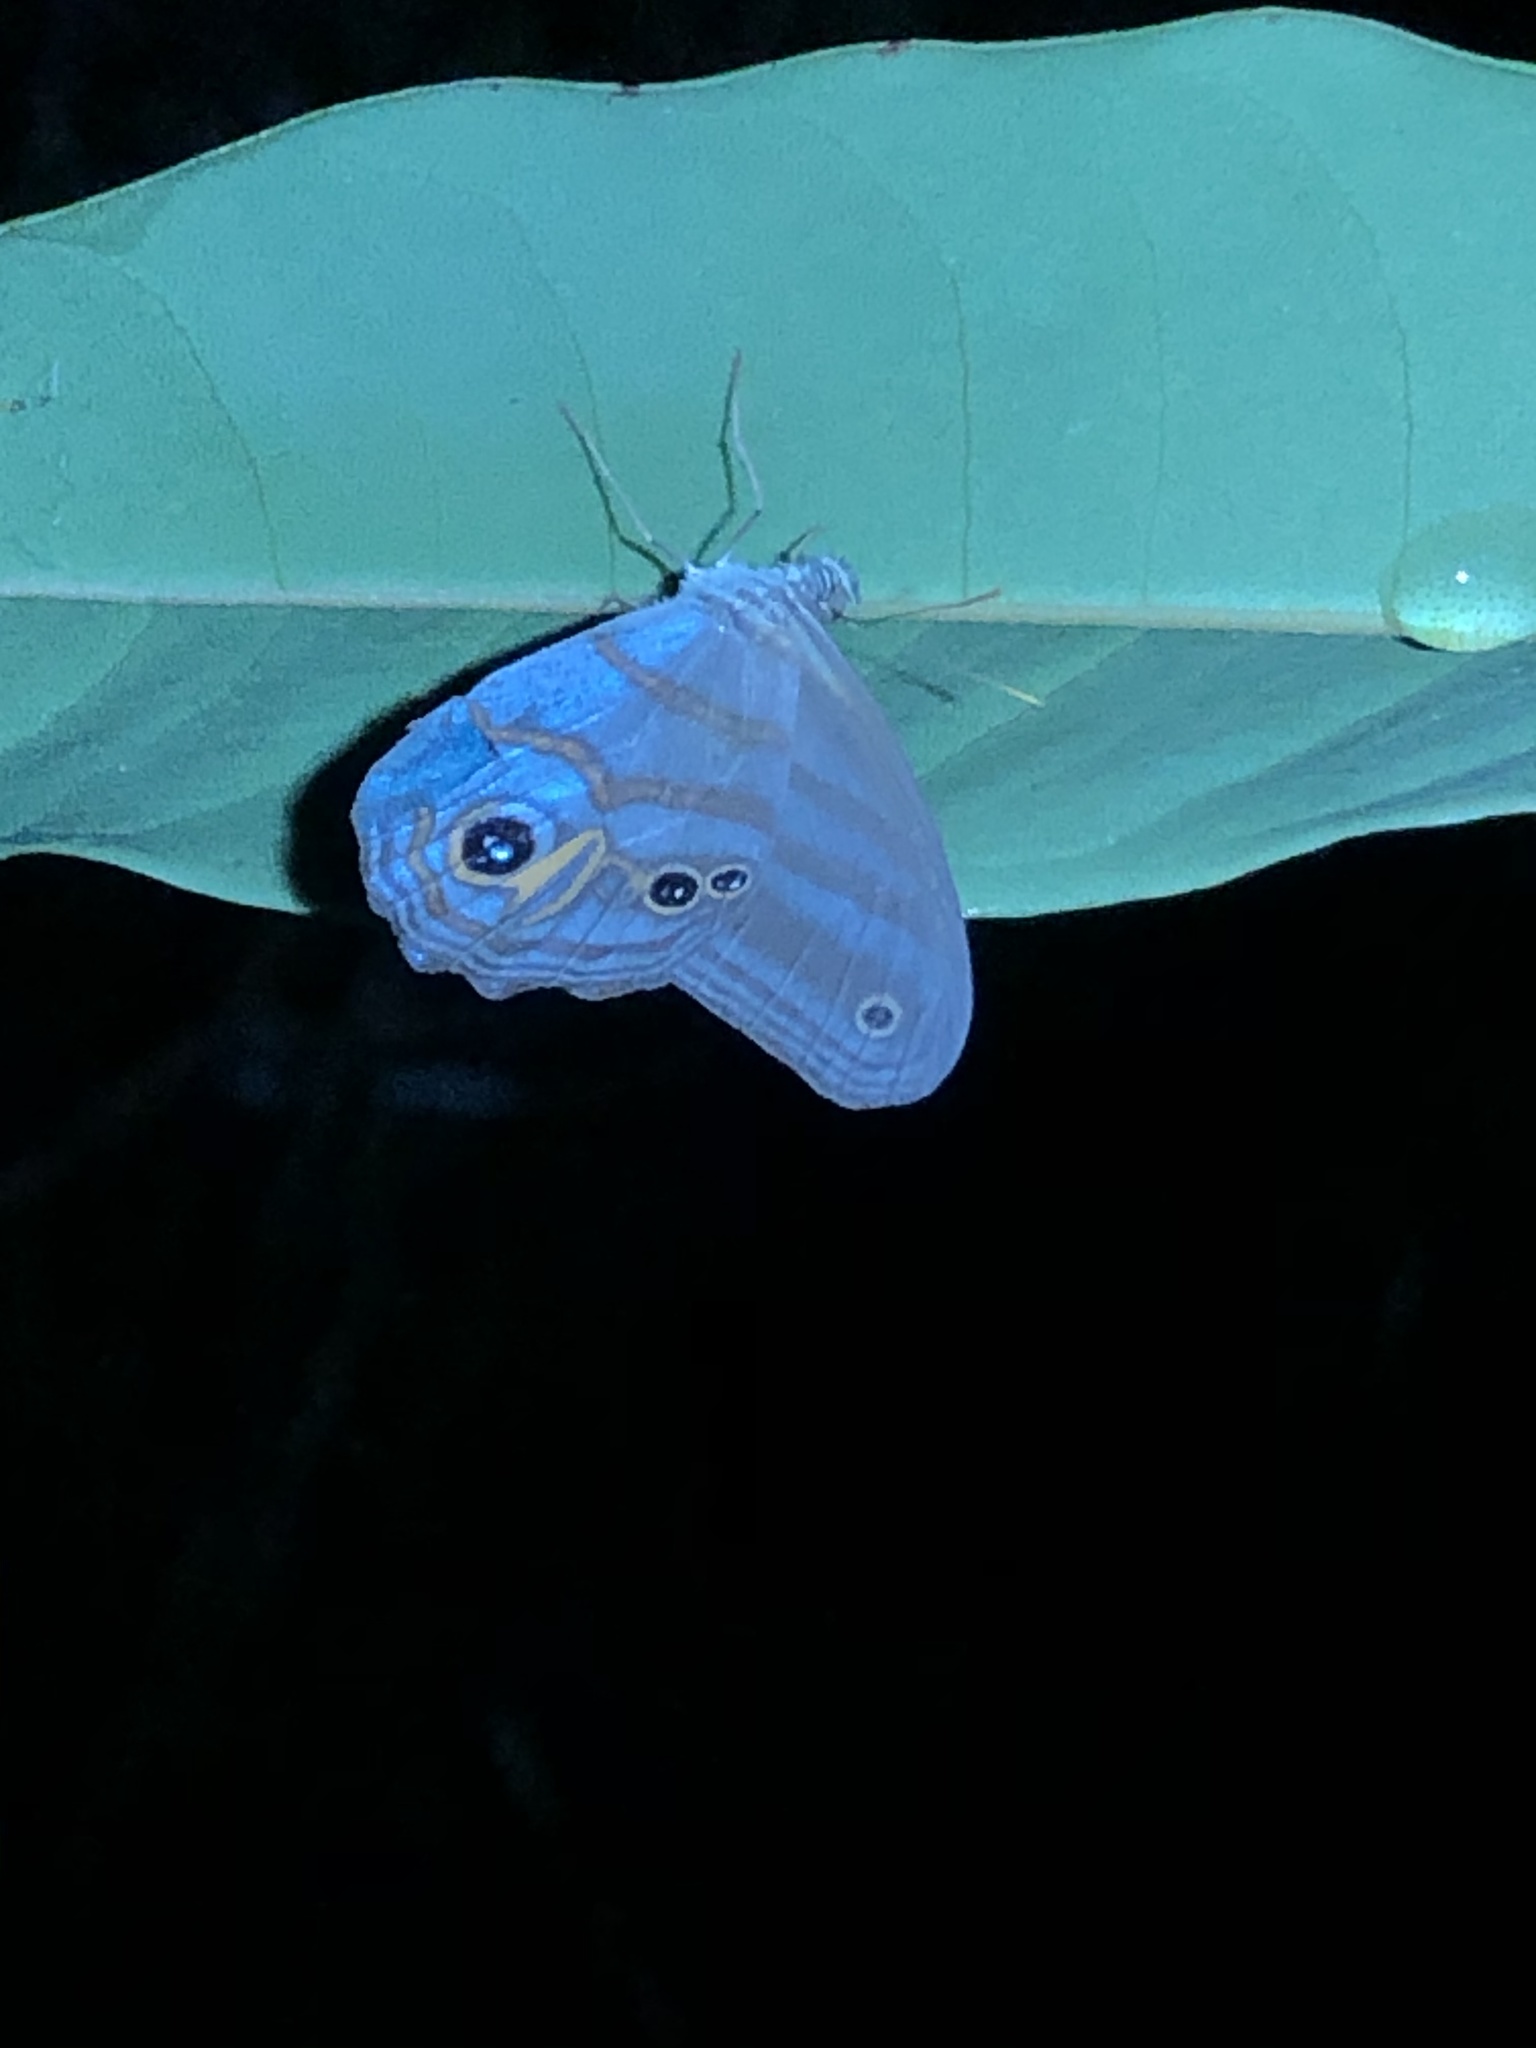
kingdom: Animalia
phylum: Arthropoda
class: Insecta
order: Lepidoptera
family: Nymphalidae
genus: Pseudeuptychia
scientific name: Pseudeuptychia
